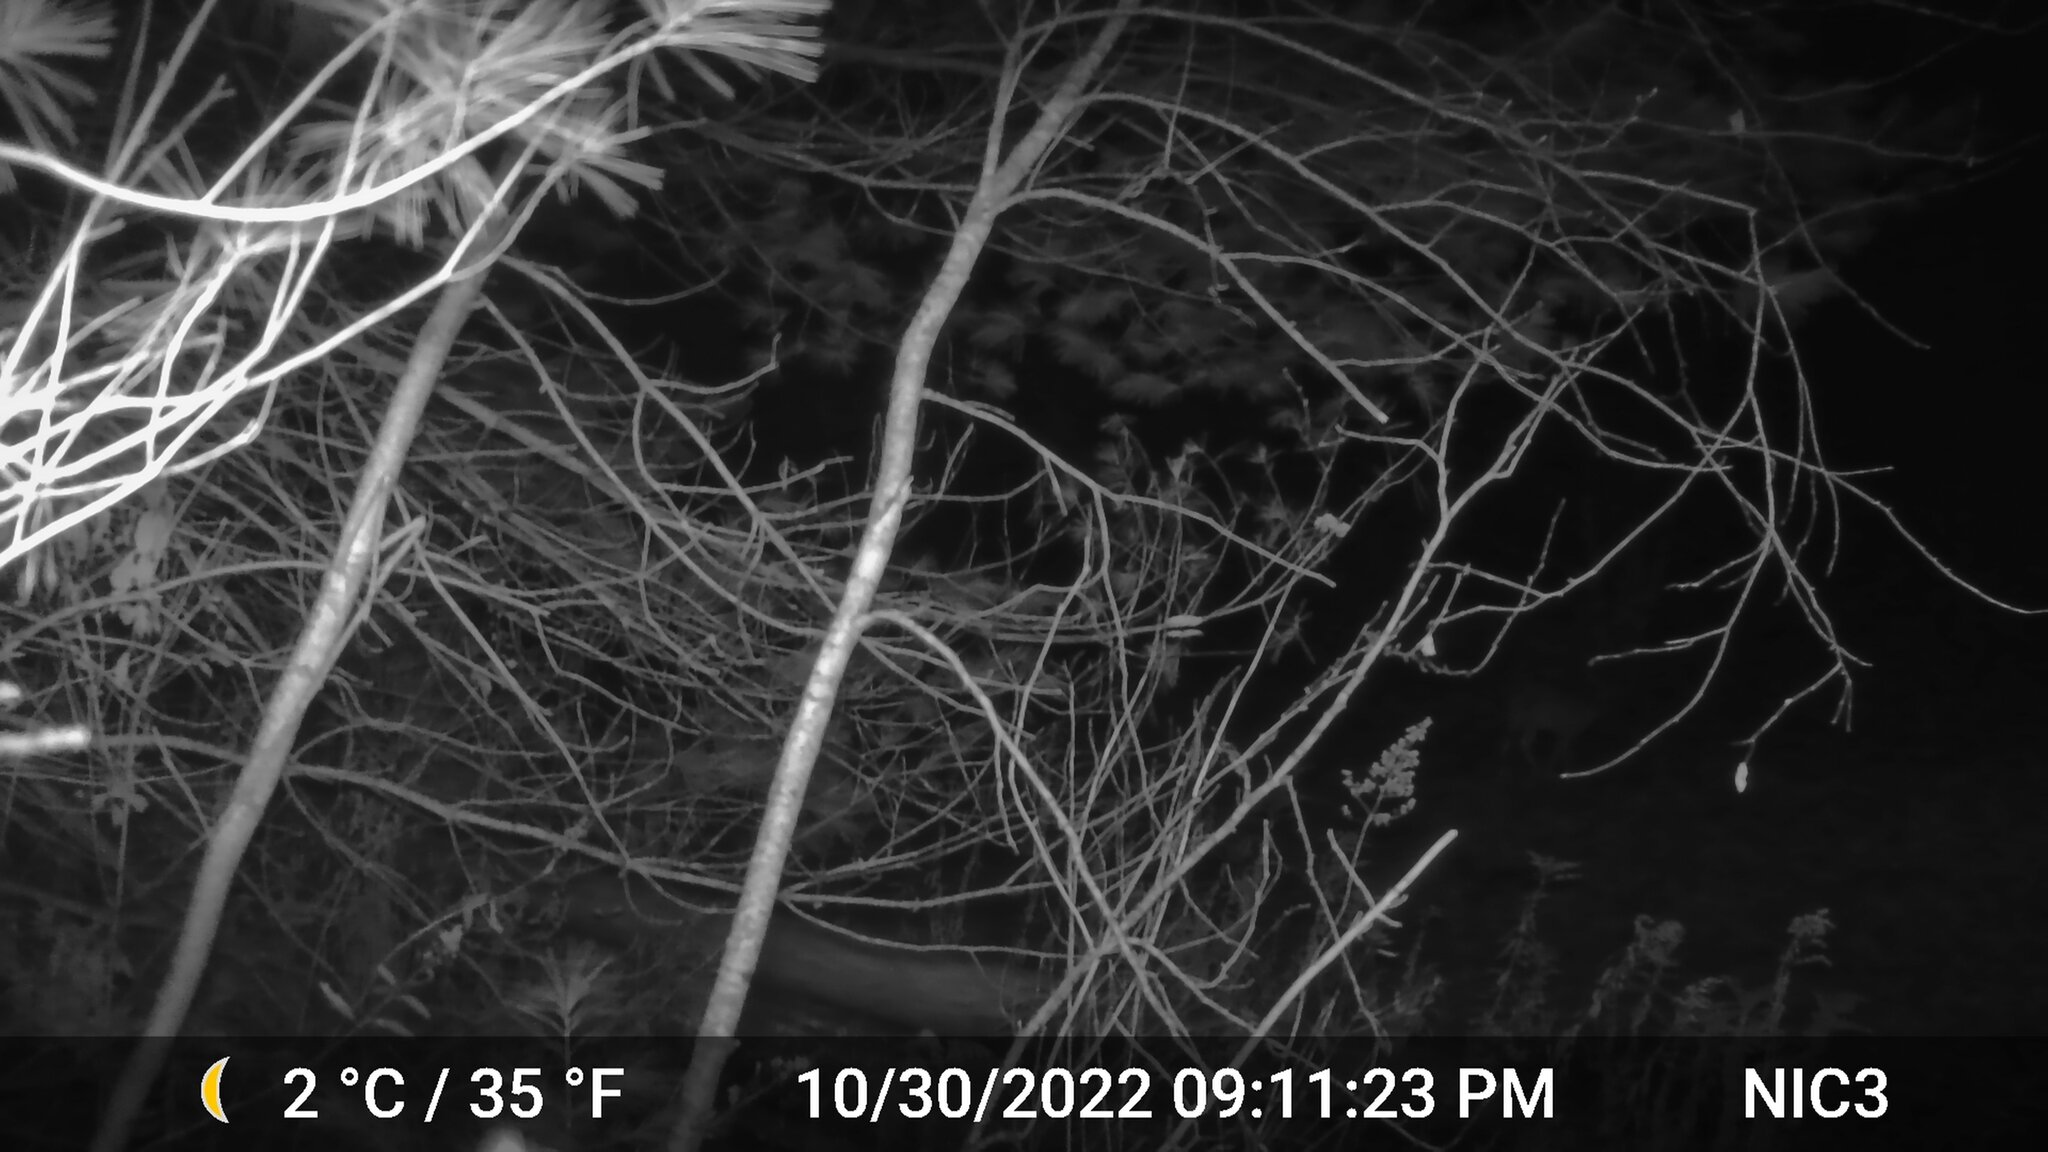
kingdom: Animalia
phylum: Chordata
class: Mammalia
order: Artiodactyla
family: Cervidae
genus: Odocoileus
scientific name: Odocoileus virginianus
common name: White-tailed deer
